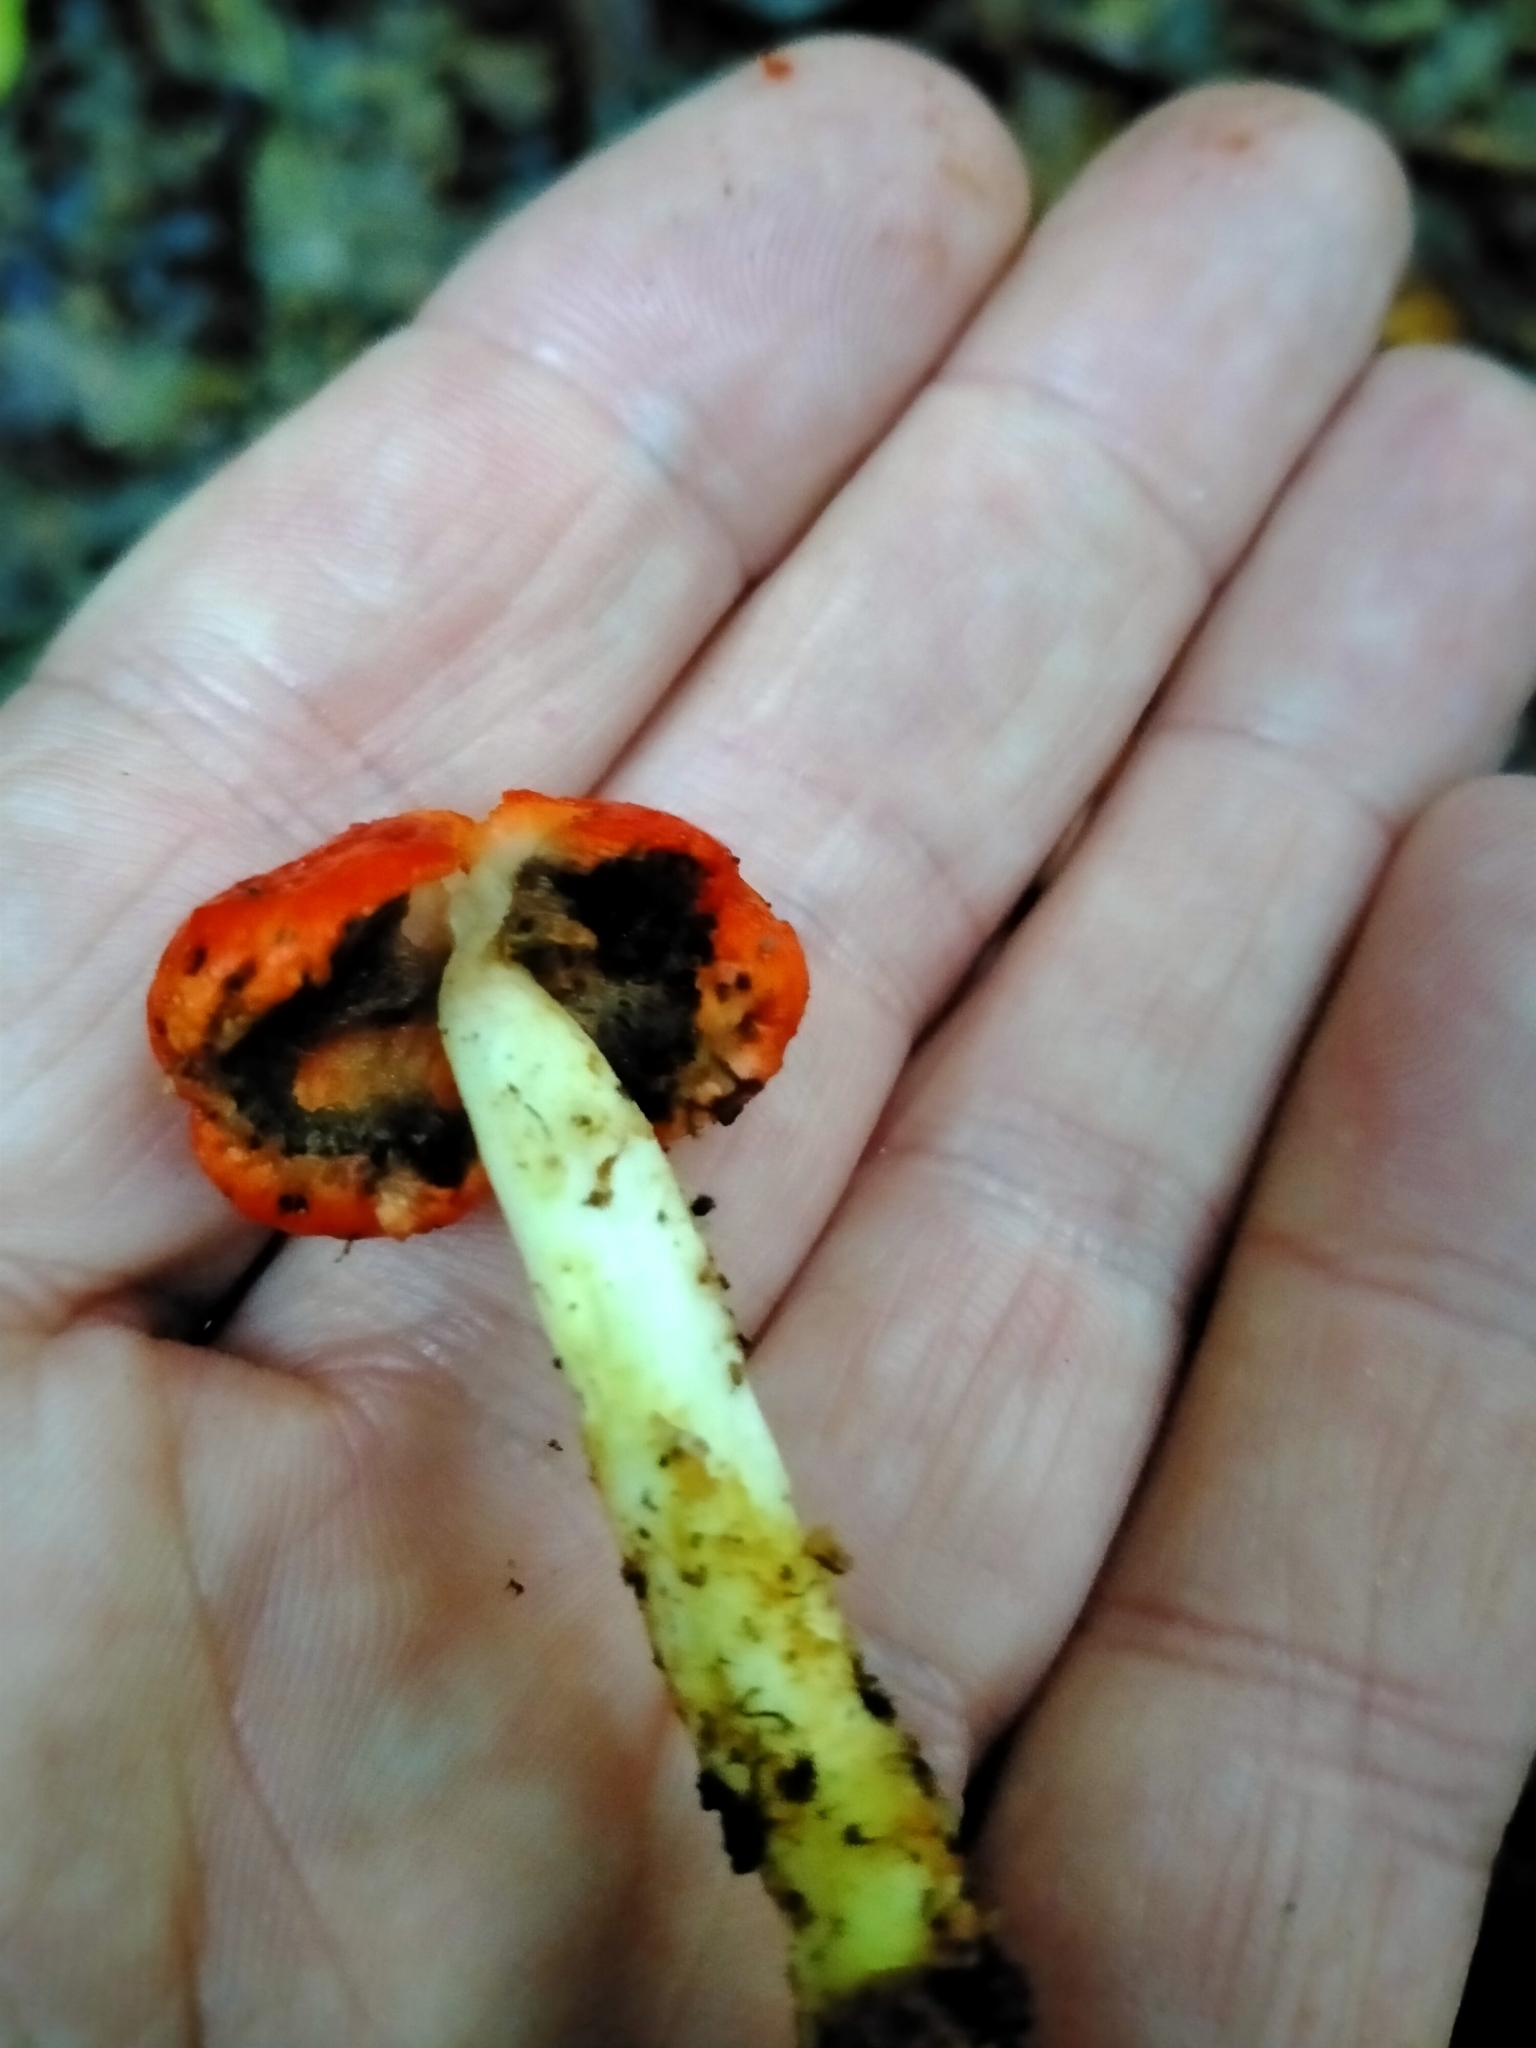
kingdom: Fungi
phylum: Basidiomycota
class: Agaricomycetes
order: Agaricales
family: Strophariaceae
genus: Leratiomyces
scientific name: Leratiomyces erythrocephalus
